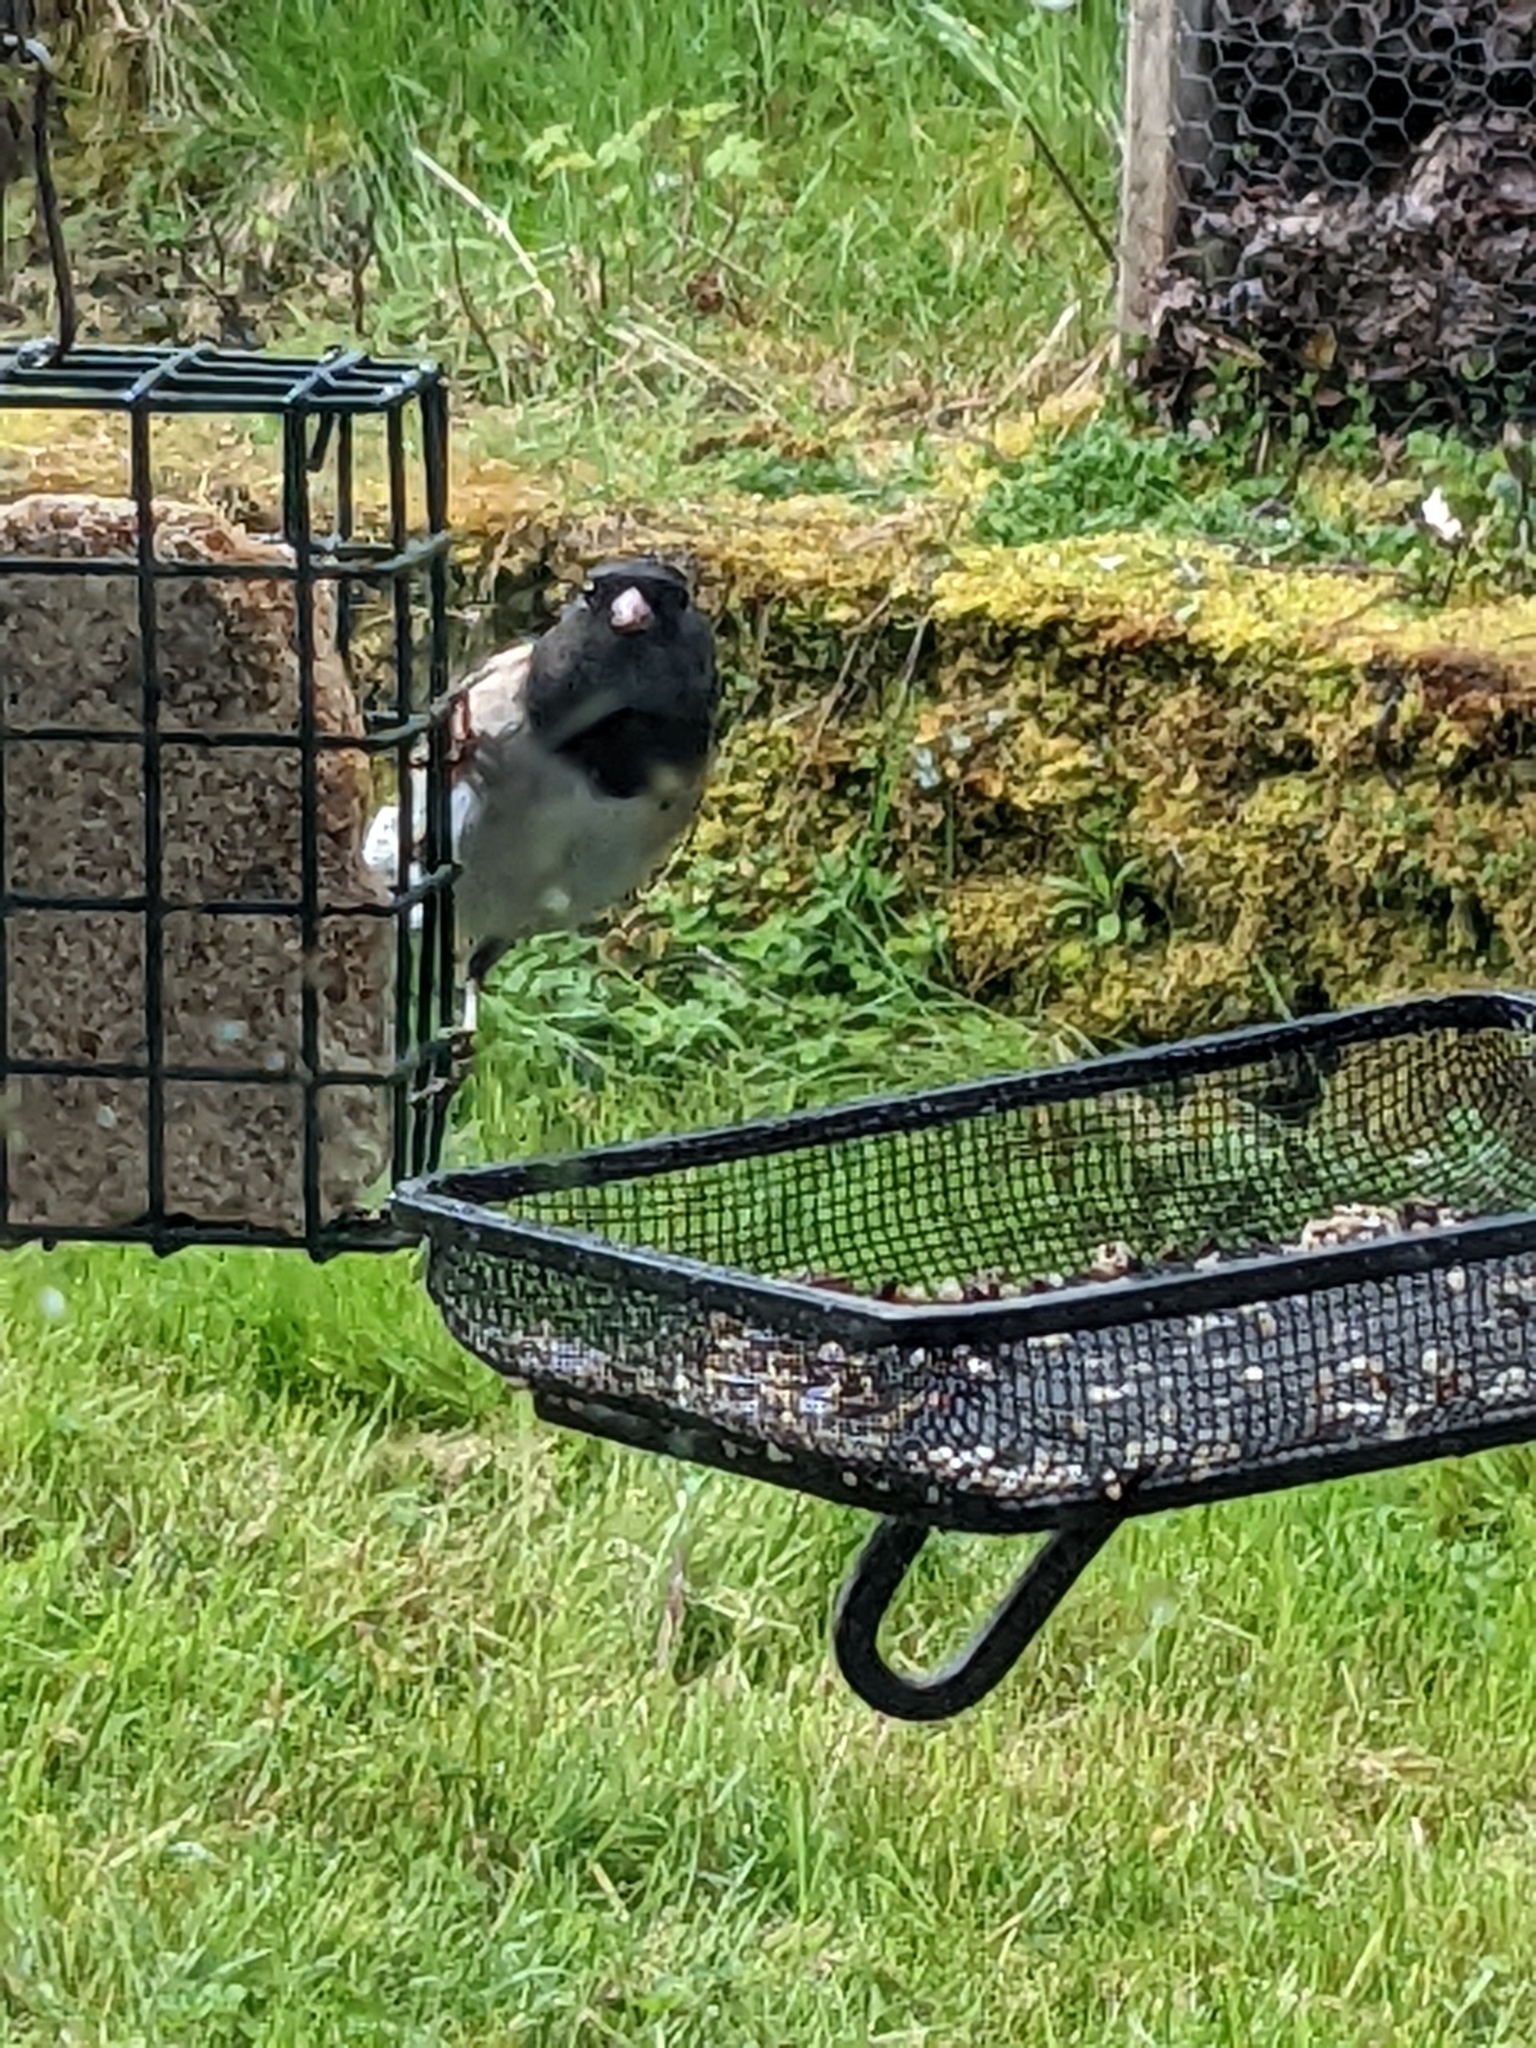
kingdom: Animalia
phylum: Chordata
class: Aves
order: Passeriformes
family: Passerellidae
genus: Junco
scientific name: Junco hyemalis
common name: Dark-eyed junco
